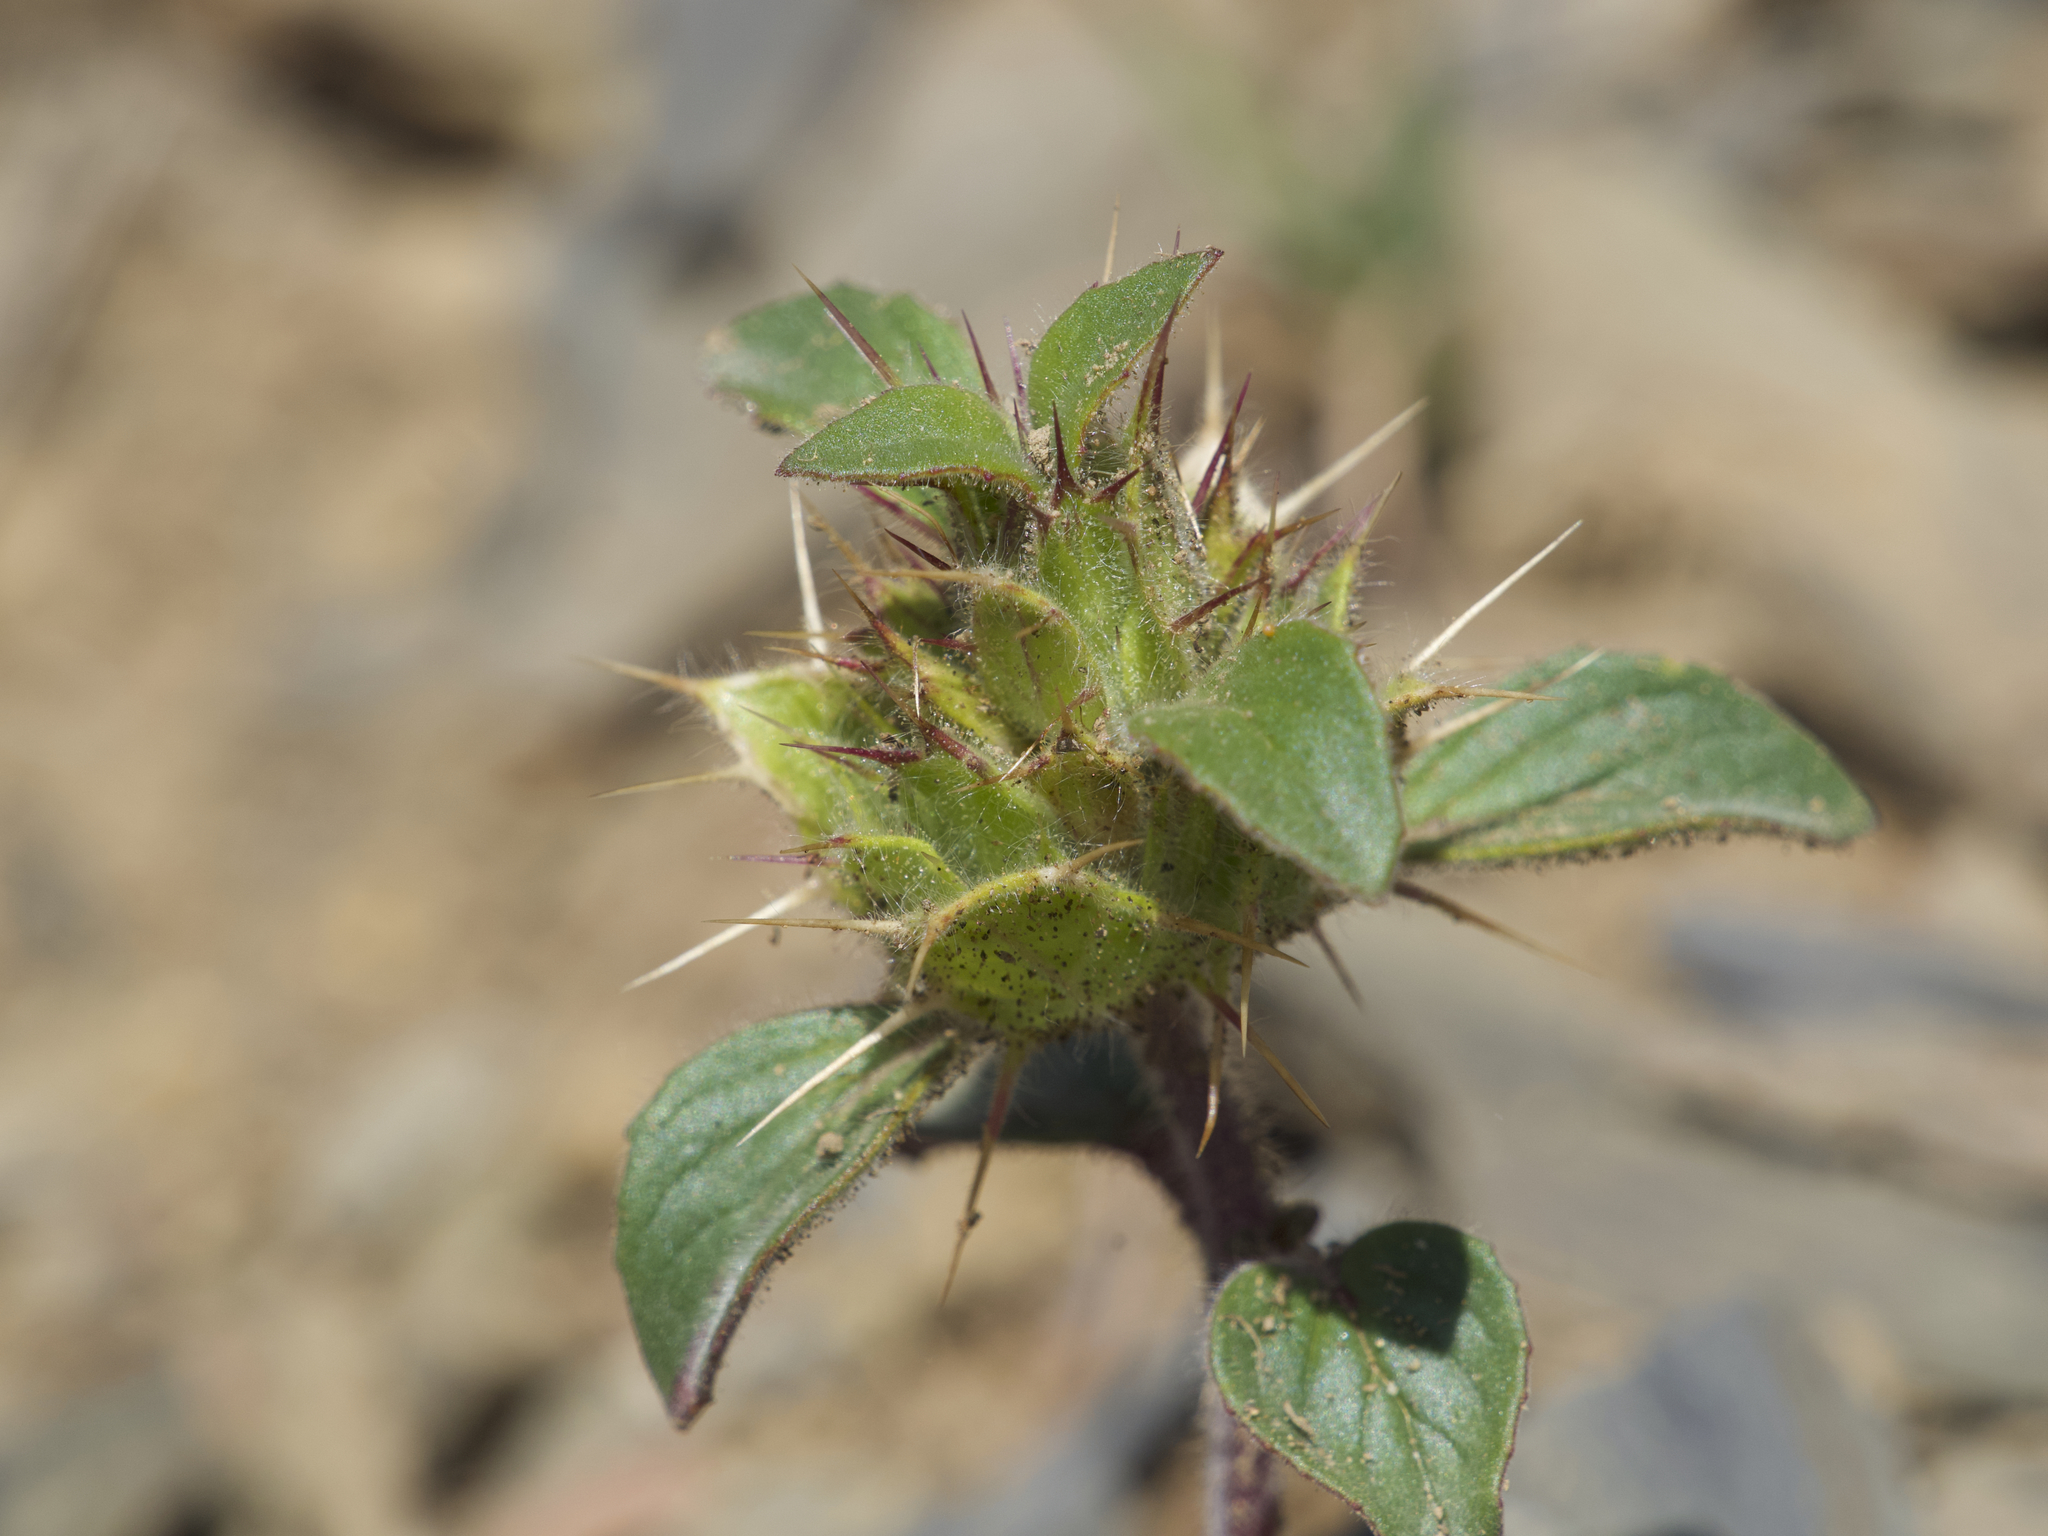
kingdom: Plantae
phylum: Tracheophyta
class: Magnoliopsida
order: Lamiales
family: Lamiaceae
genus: Acanthomintha
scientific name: Acanthomintha lanceolata
